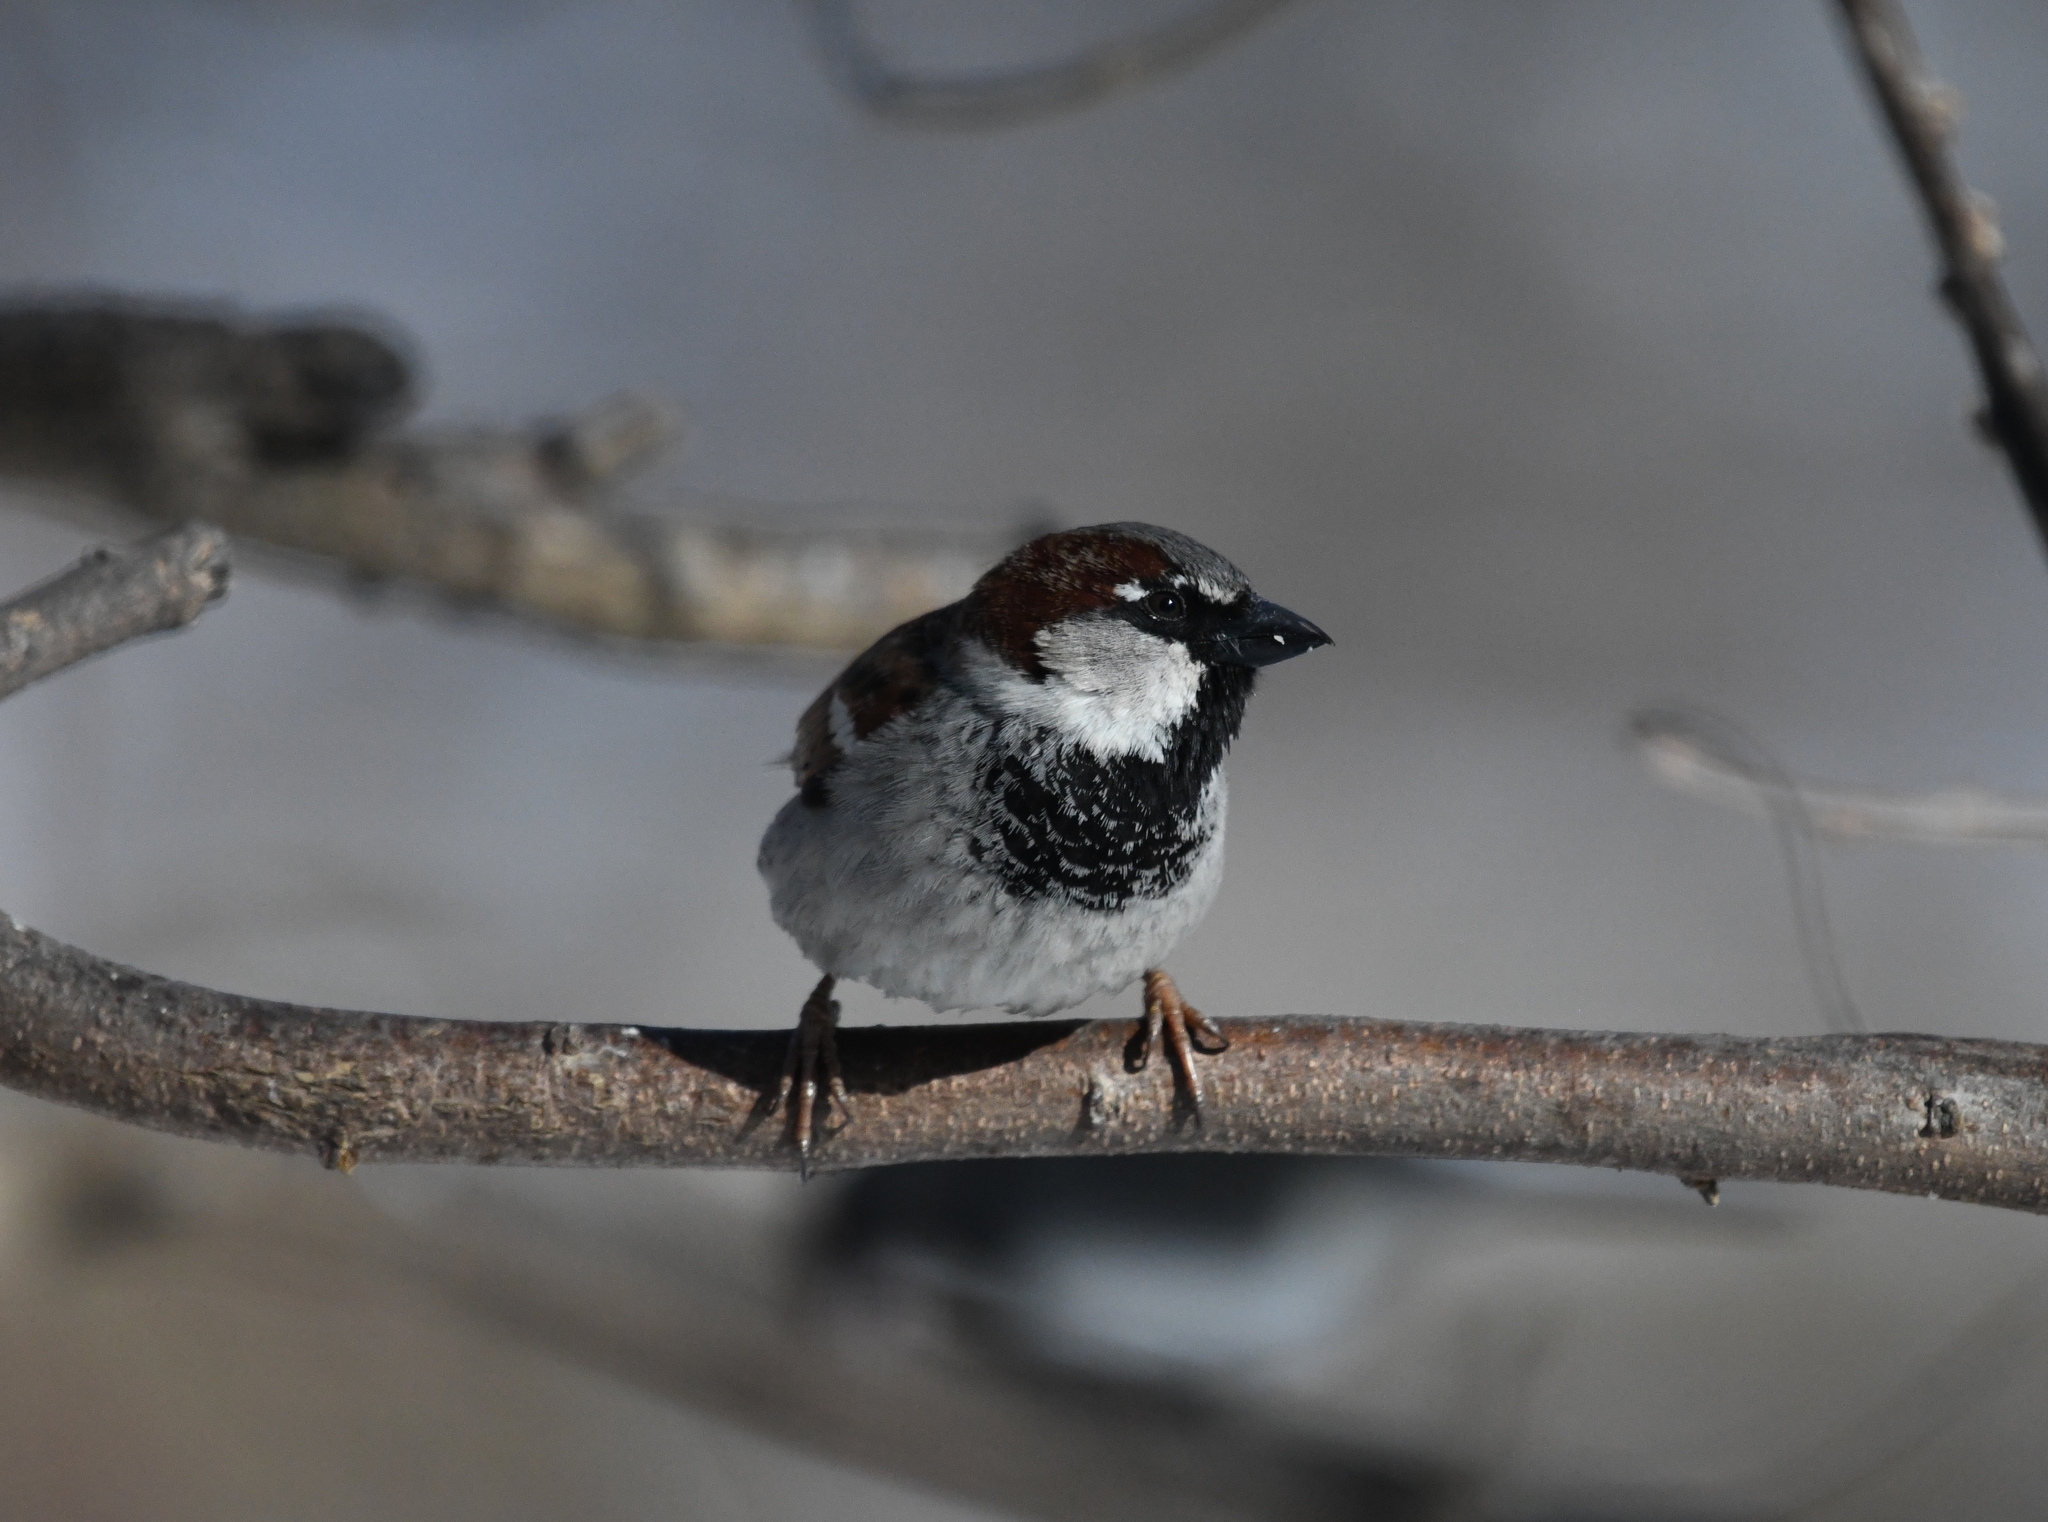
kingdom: Animalia
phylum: Chordata
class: Aves
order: Passeriformes
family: Passeridae
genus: Passer
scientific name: Passer domesticus
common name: House sparrow
